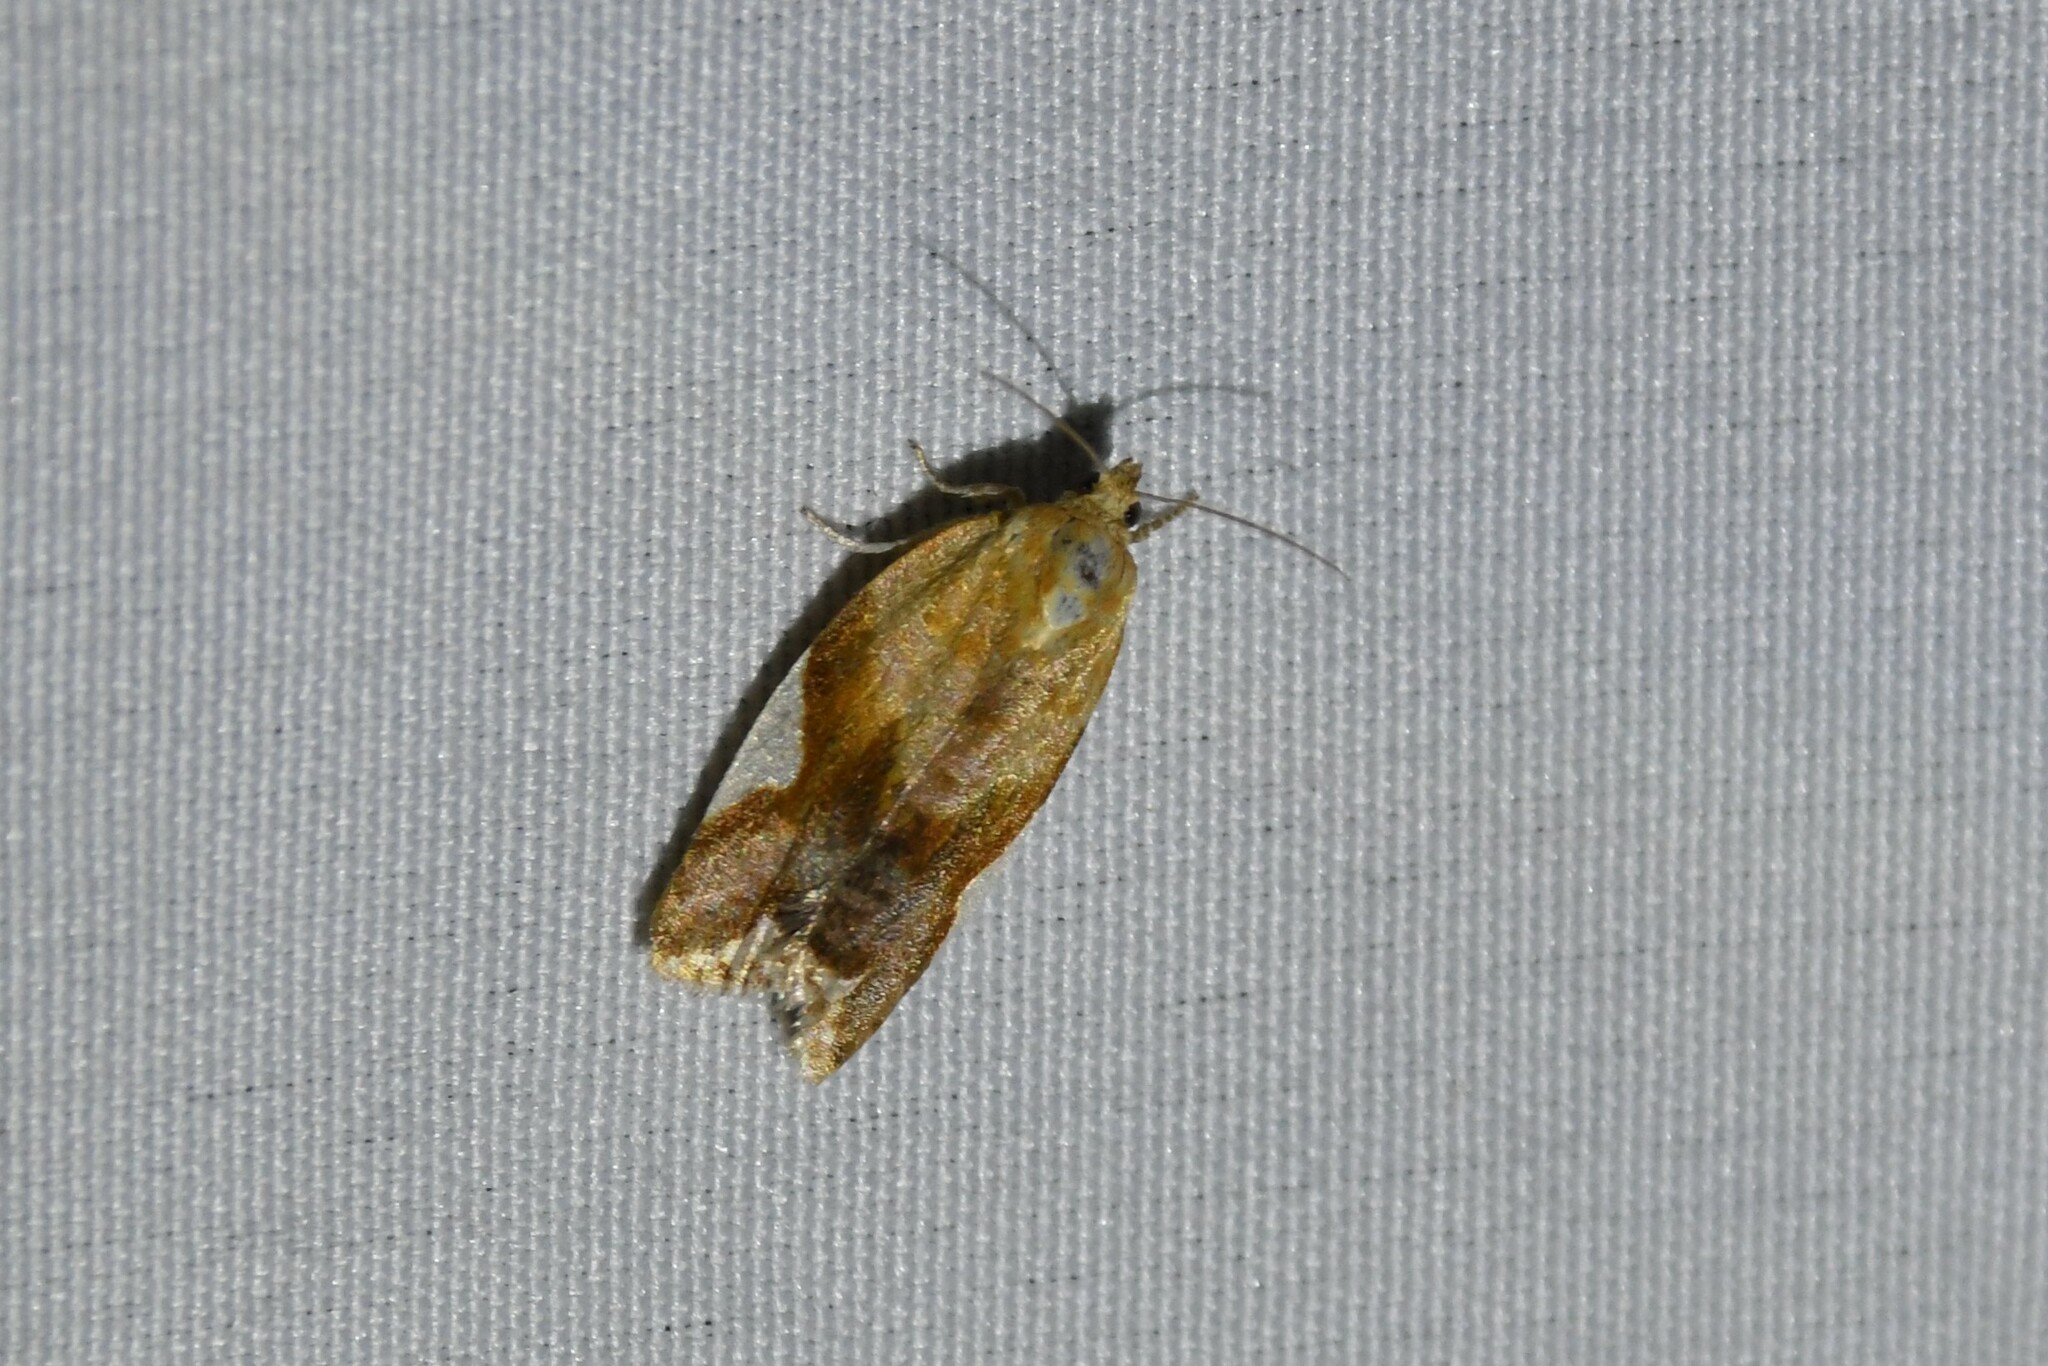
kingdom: Animalia
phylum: Arthropoda
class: Insecta
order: Lepidoptera
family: Tortricidae
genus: Clepsis
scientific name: Clepsis persicana
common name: White triangle tortrix
